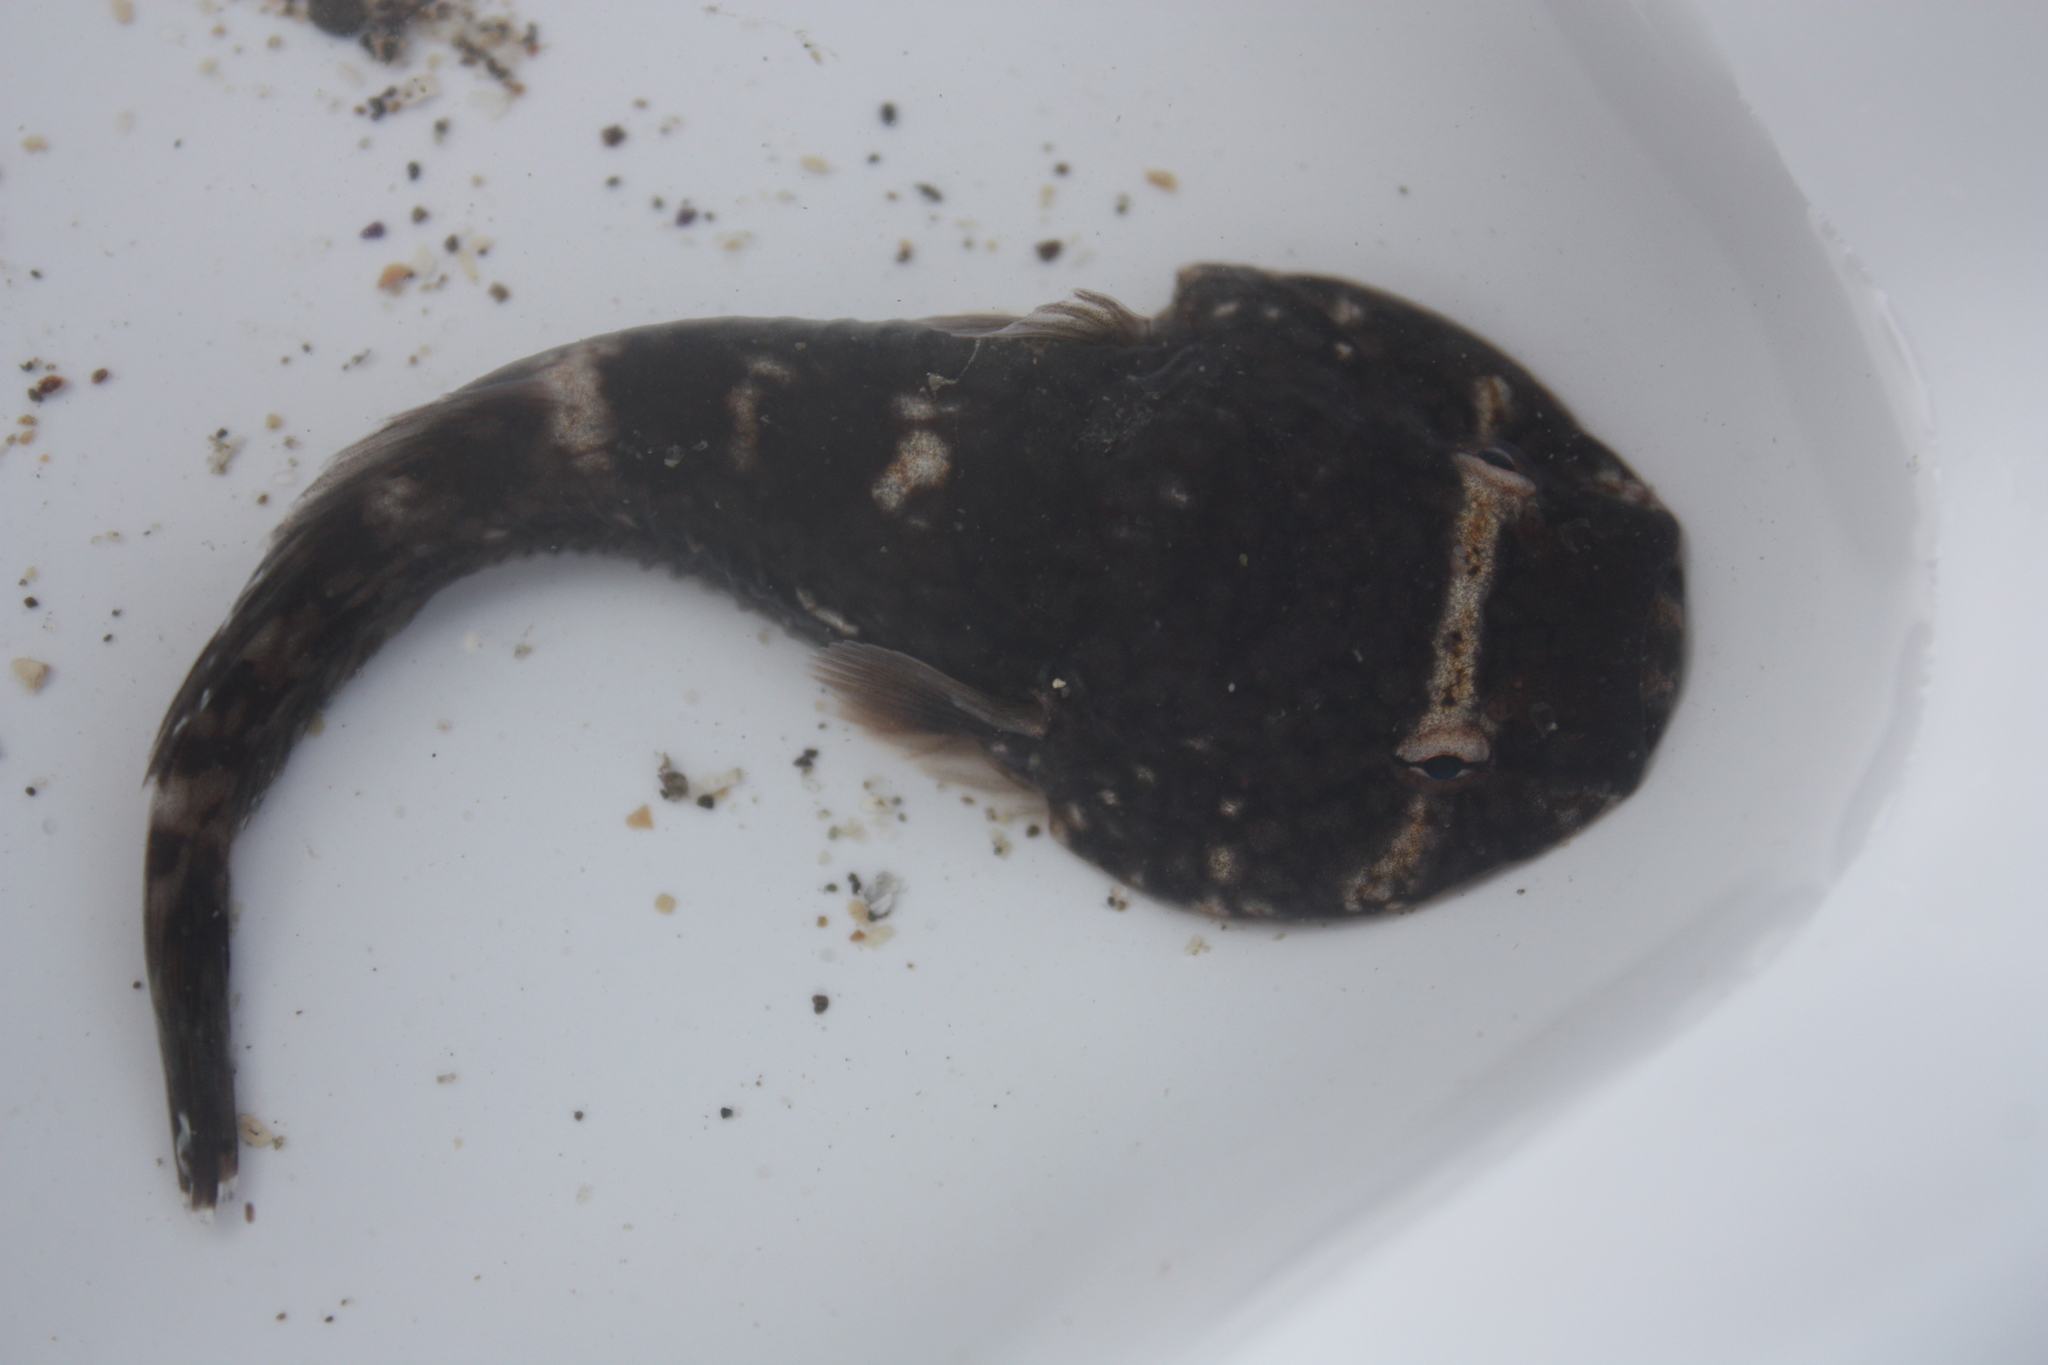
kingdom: Animalia
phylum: Chordata
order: Gobiesociformes
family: Gobiesocidae
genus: Gobiesox
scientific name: Gobiesox maeandricus
